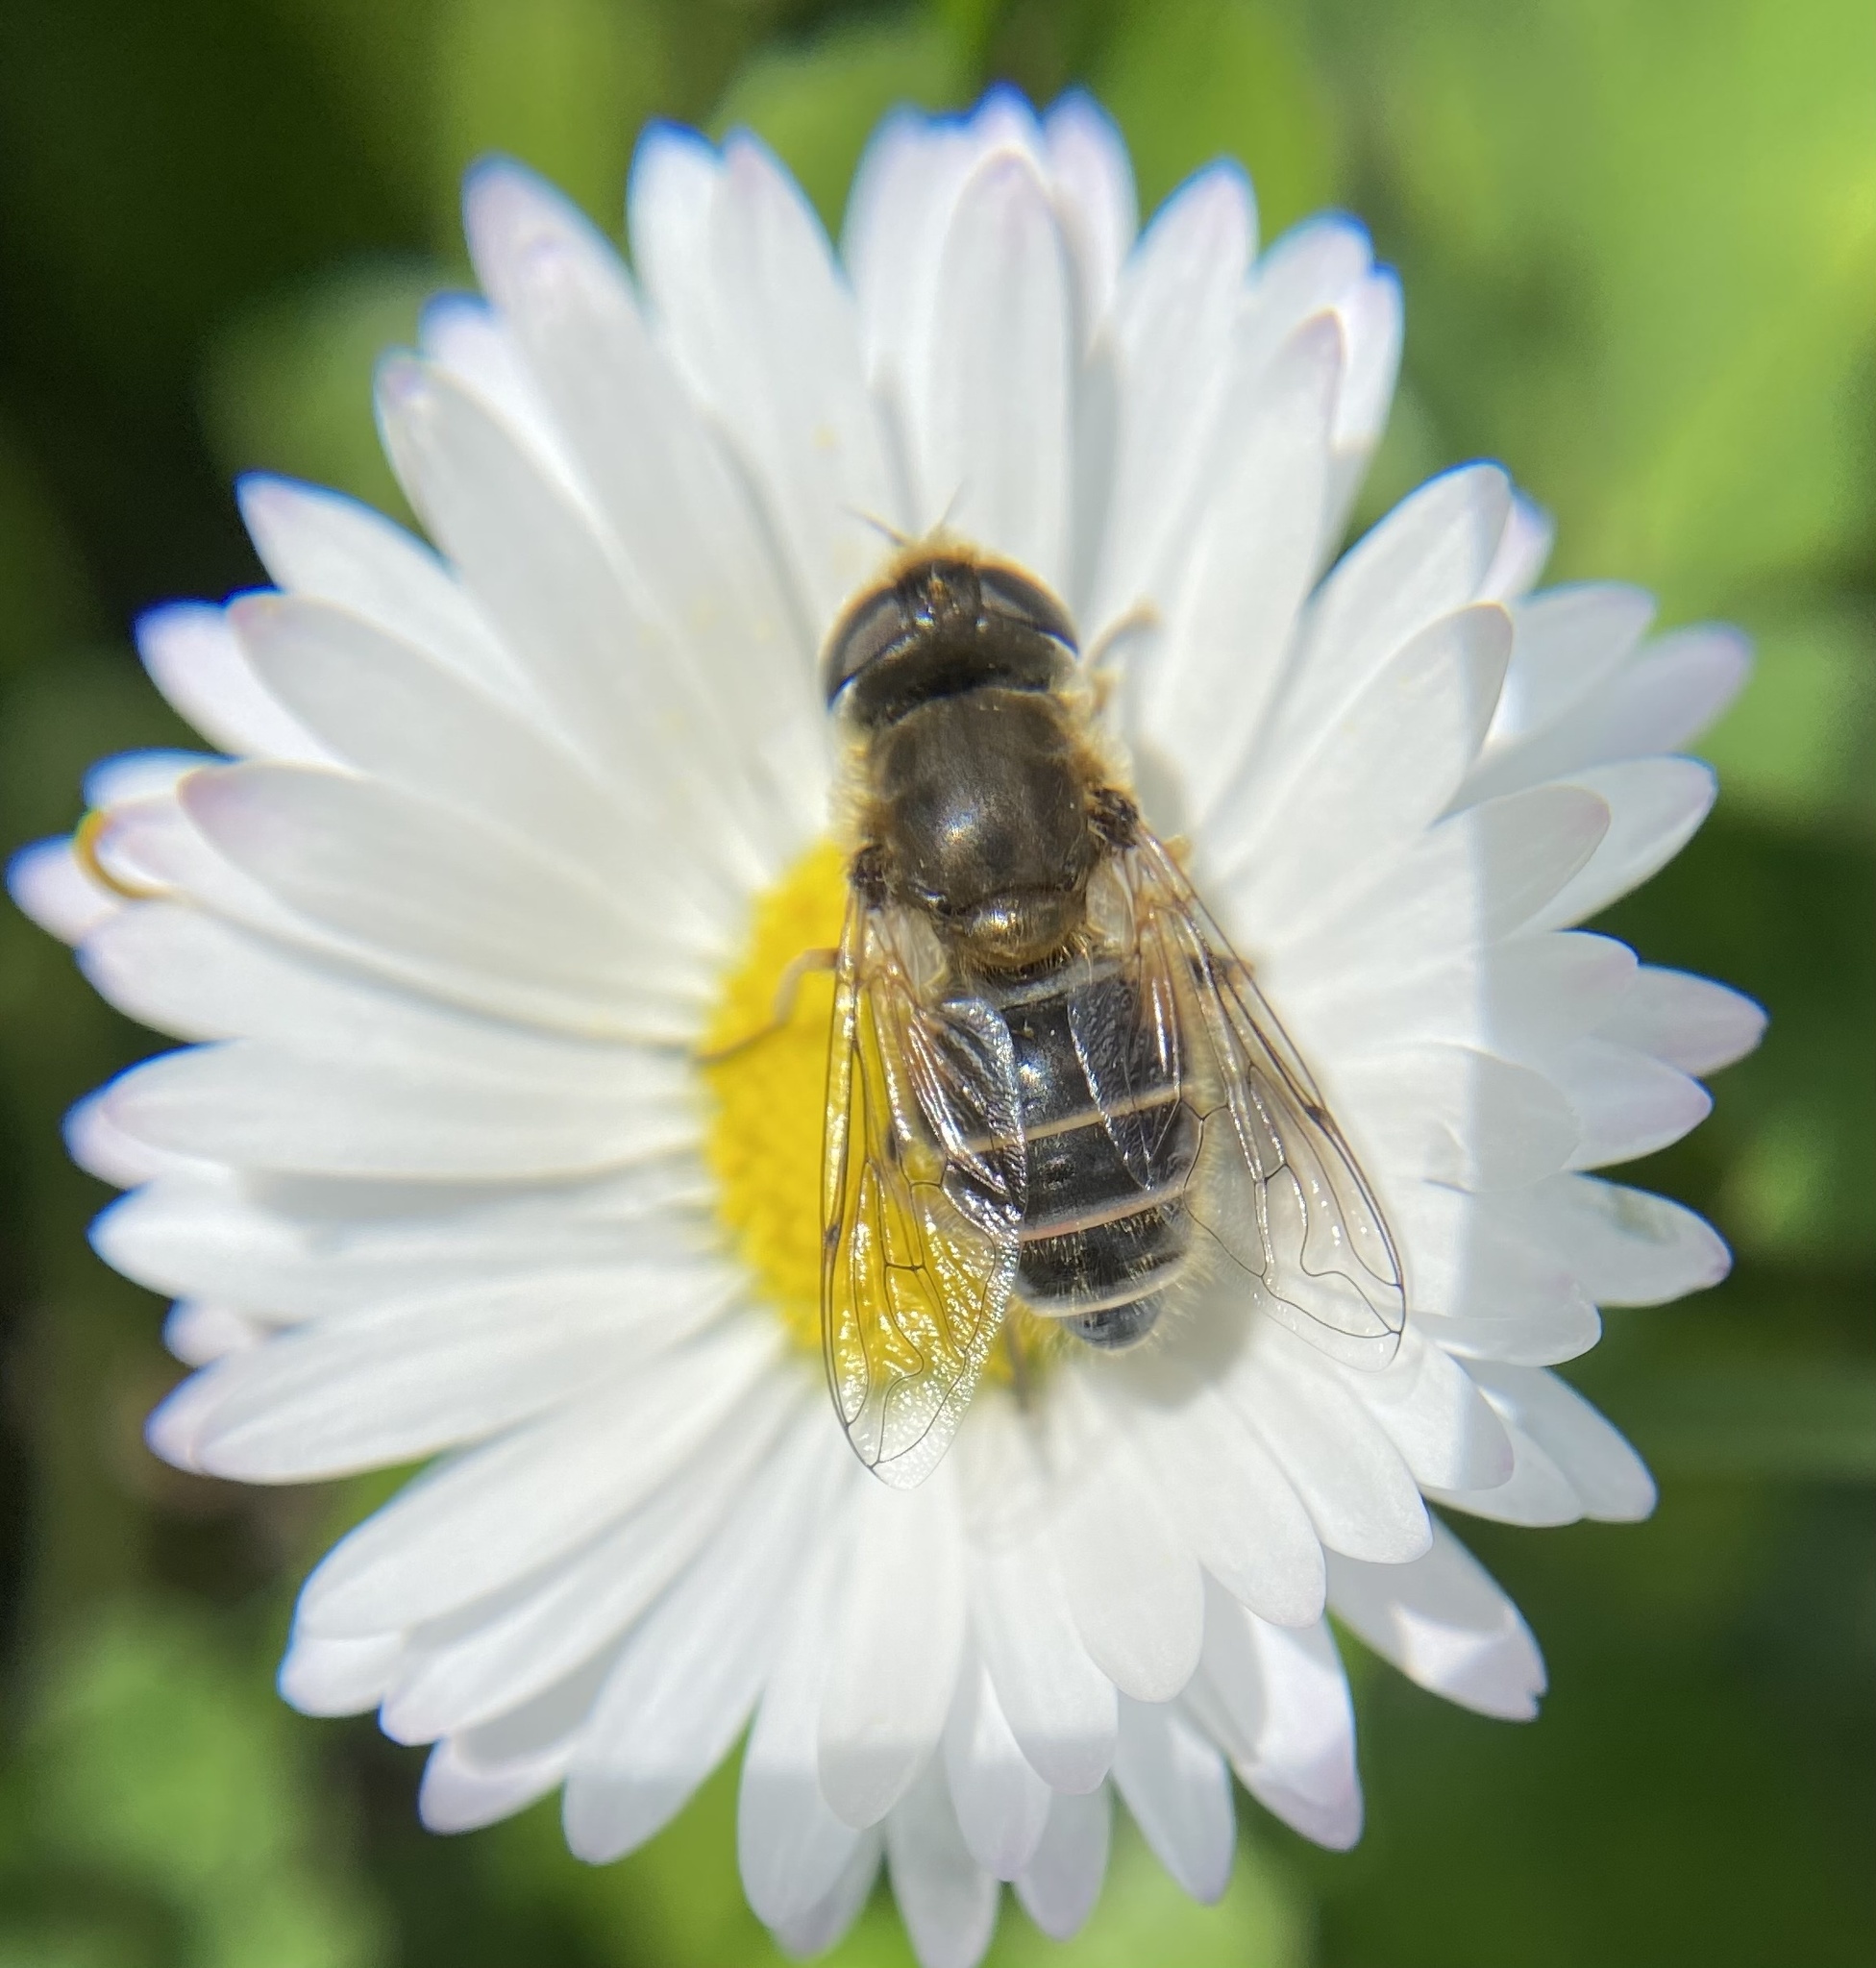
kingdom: Animalia
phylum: Arthropoda
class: Insecta
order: Diptera
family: Syrphidae
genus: Eristalis
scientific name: Eristalis arbustorum
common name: Hover fly
